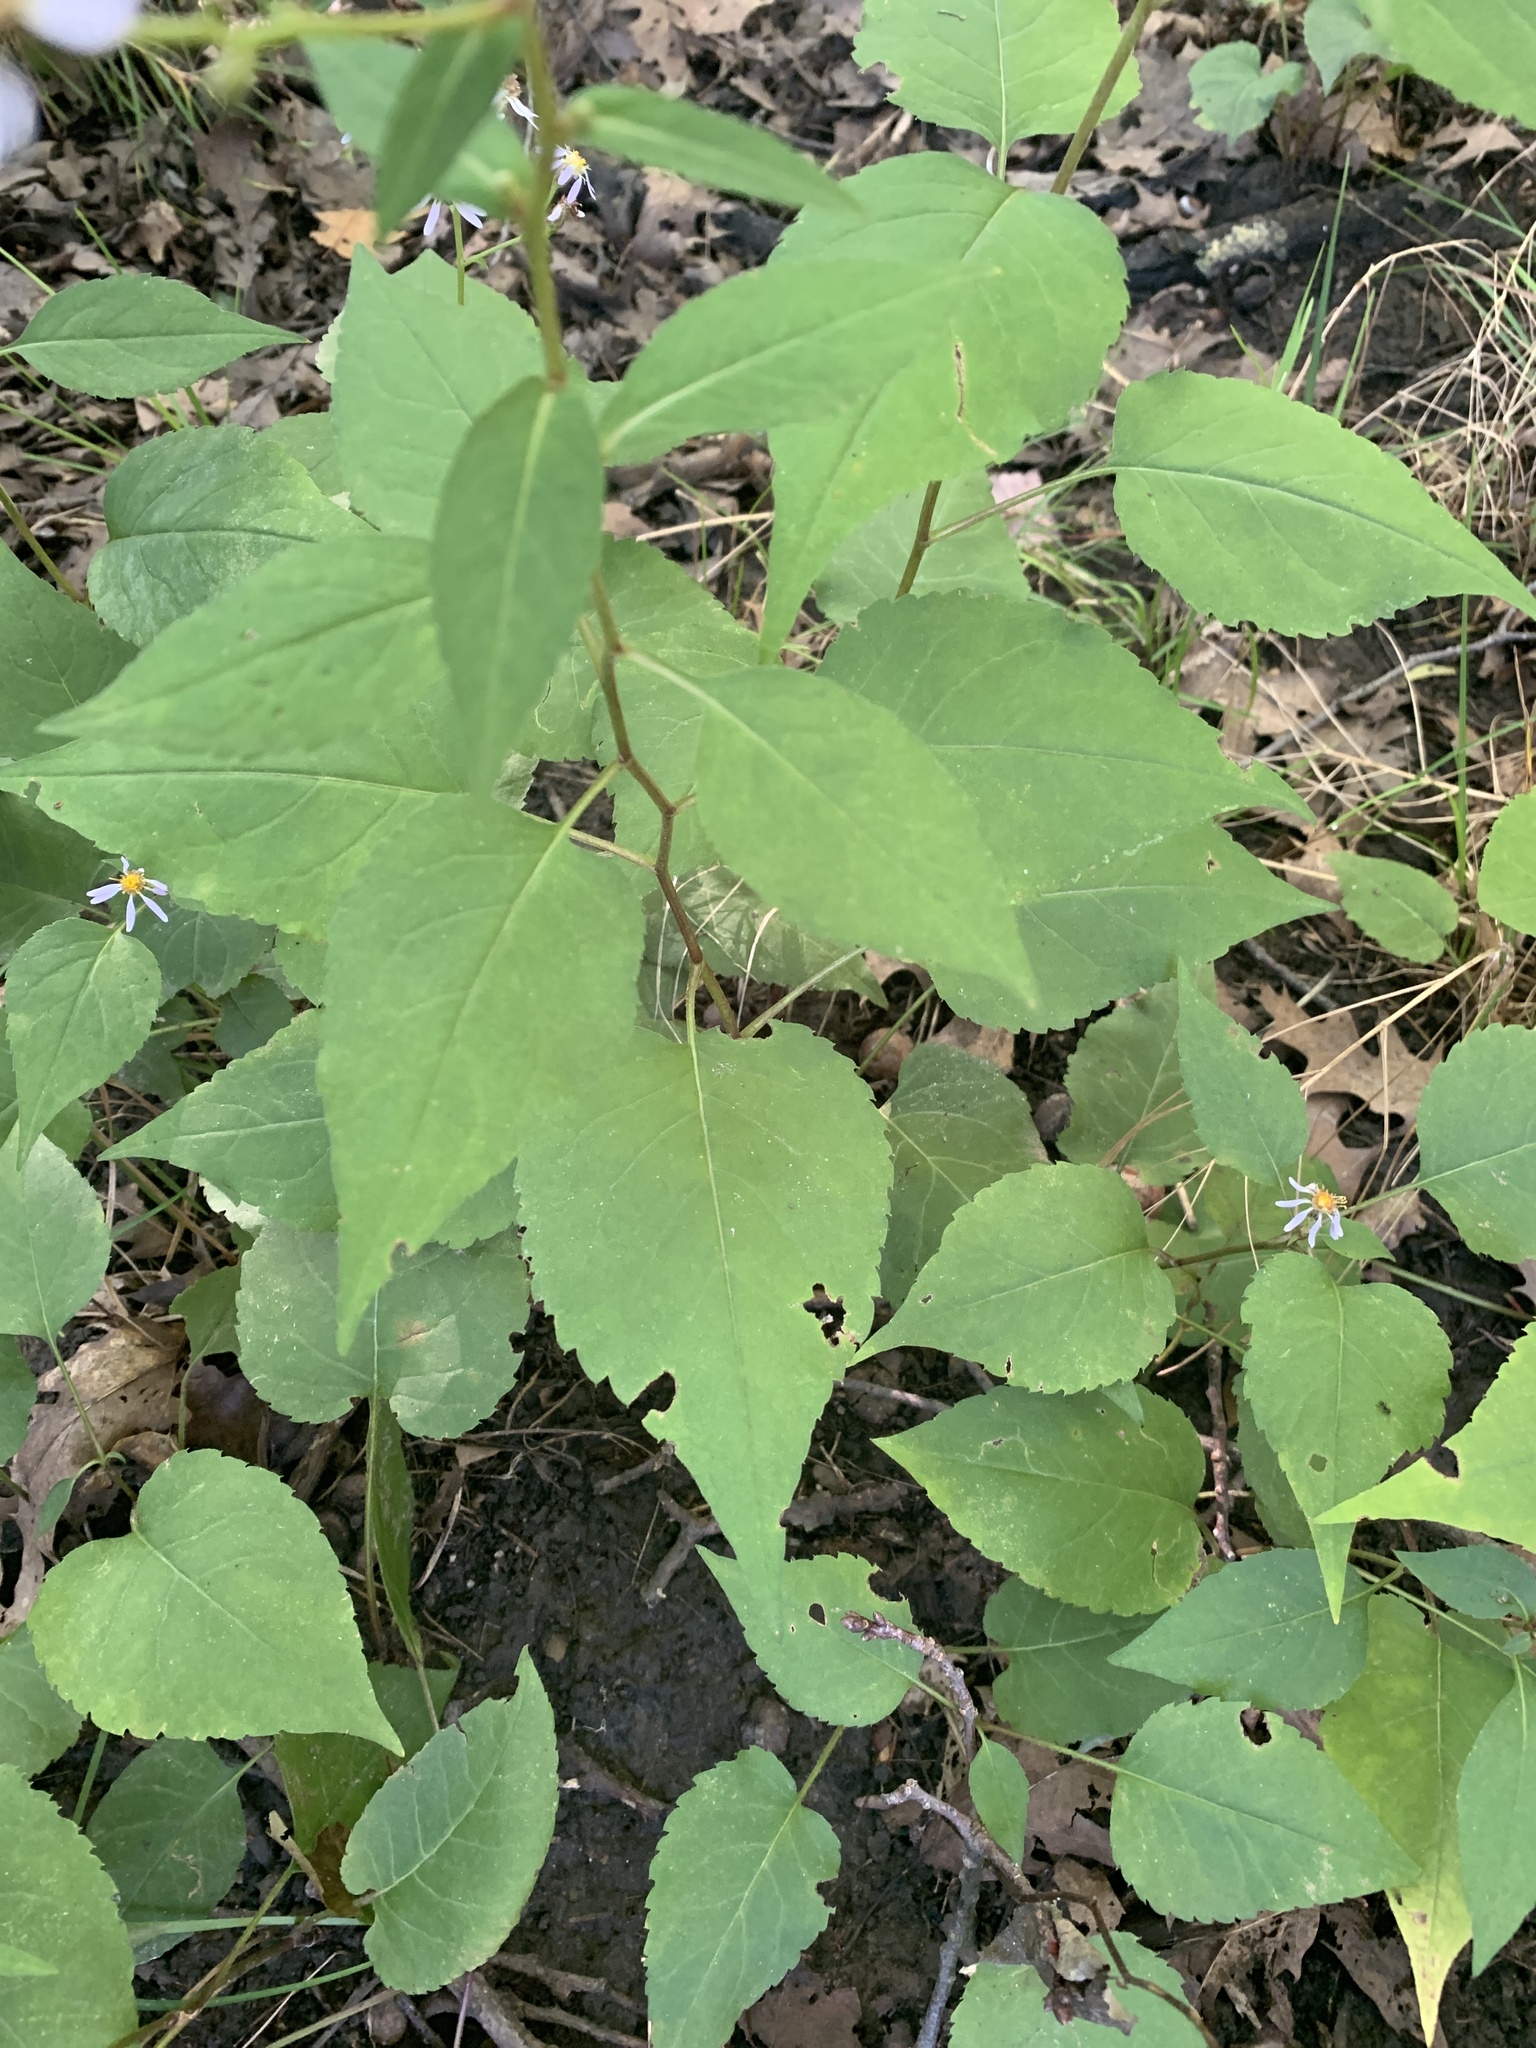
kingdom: Plantae
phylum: Tracheophyta
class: Magnoliopsida
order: Asterales
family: Asteraceae
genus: Eurybia
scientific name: Eurybia schreberi
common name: Schreber's aster
